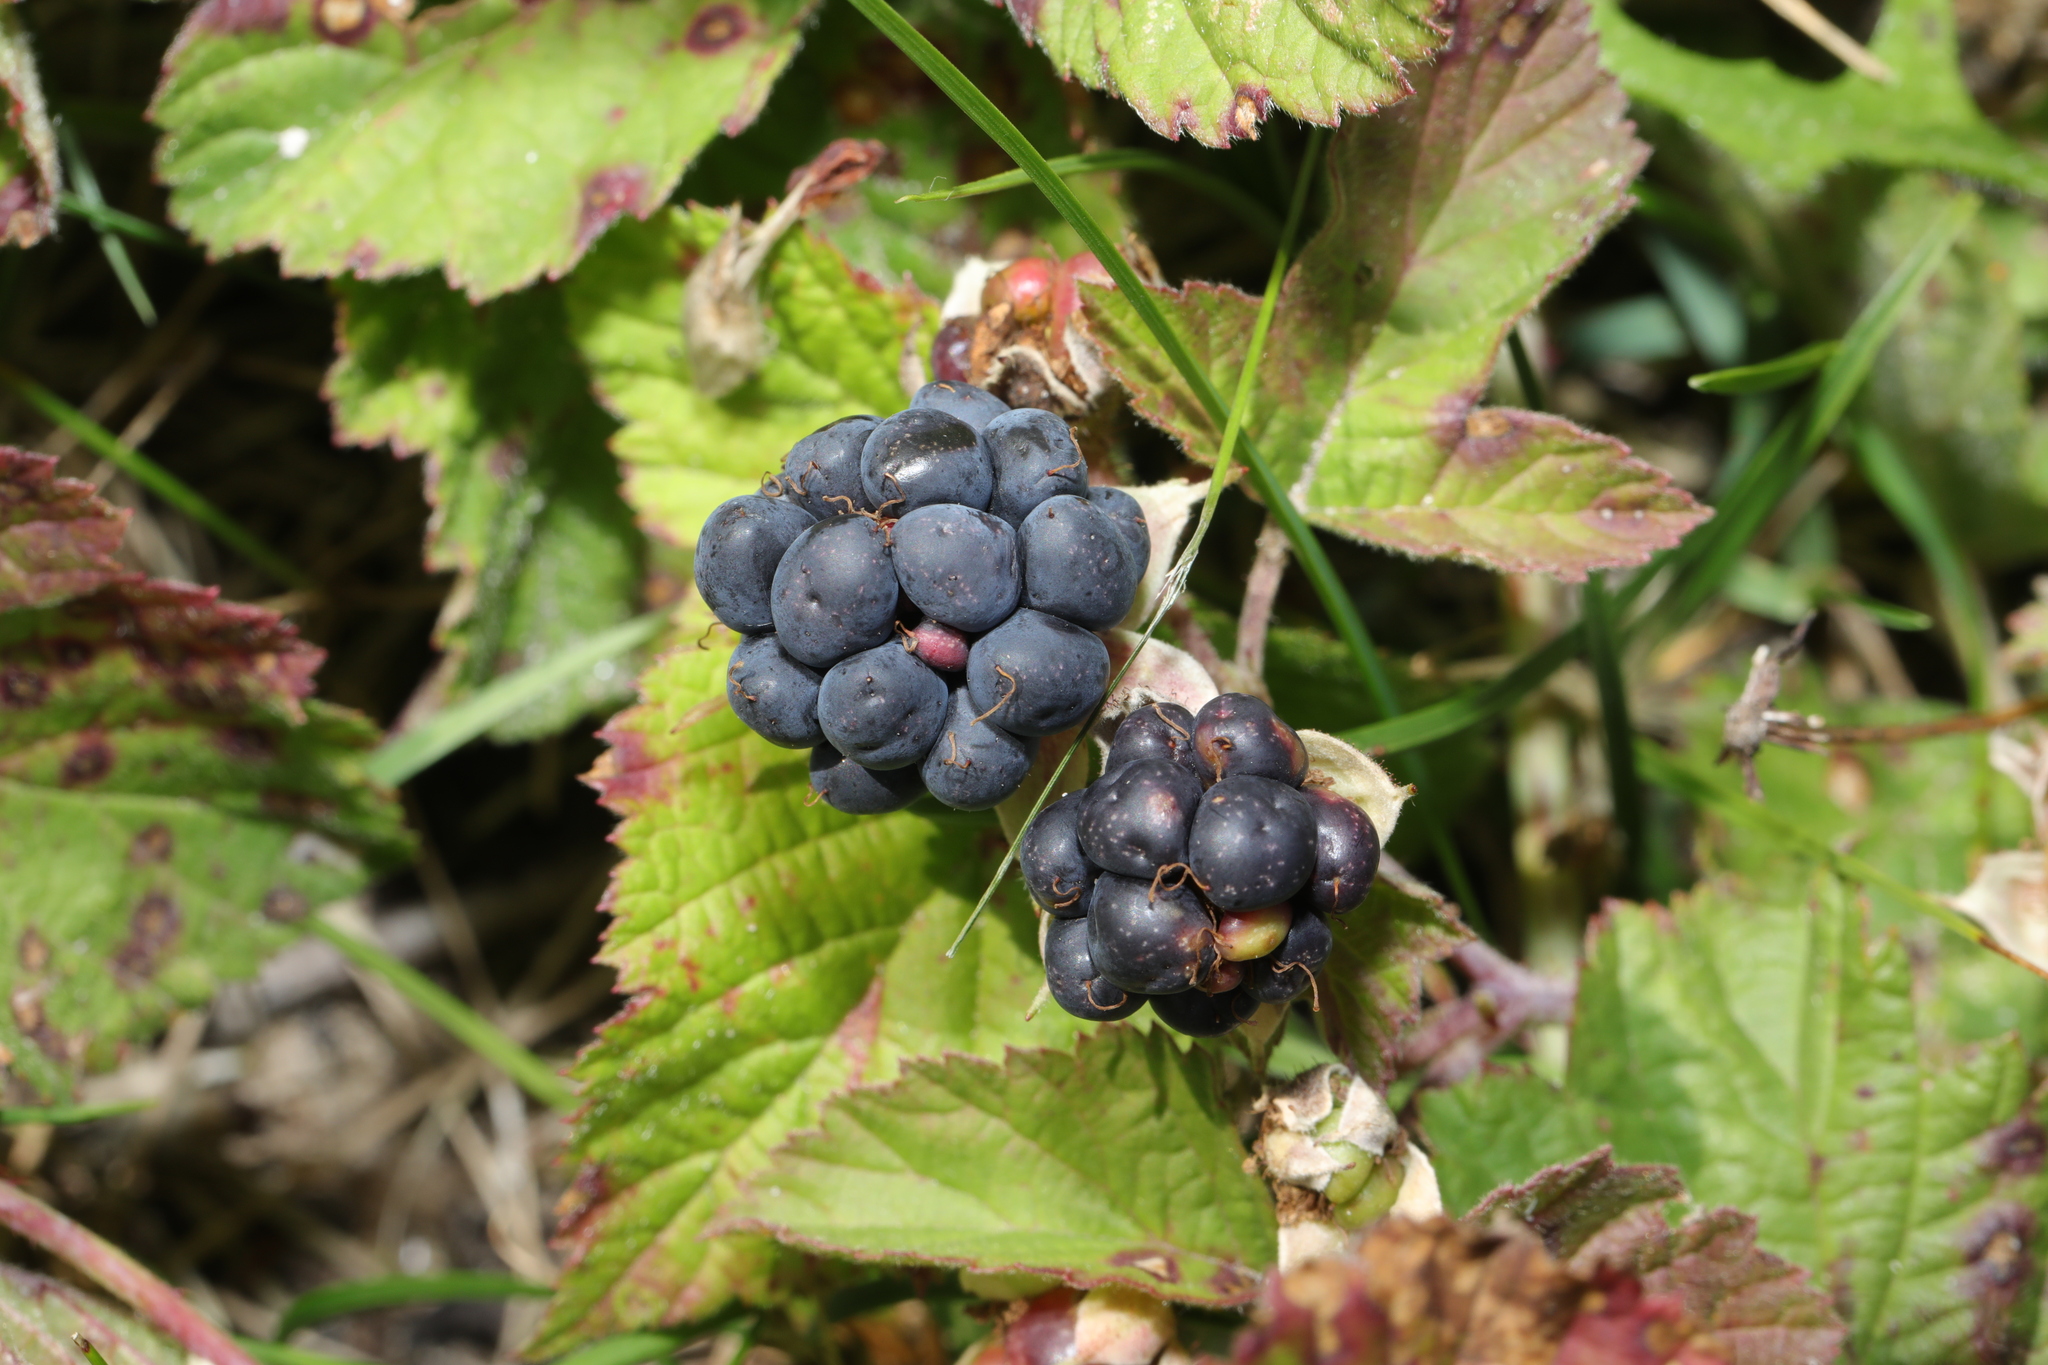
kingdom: Plantae
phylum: Tracheophyta
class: Magnoliopsida
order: Rosales
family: Rosaceae
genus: Rubus
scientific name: Rubus caesius
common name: Dewberry
